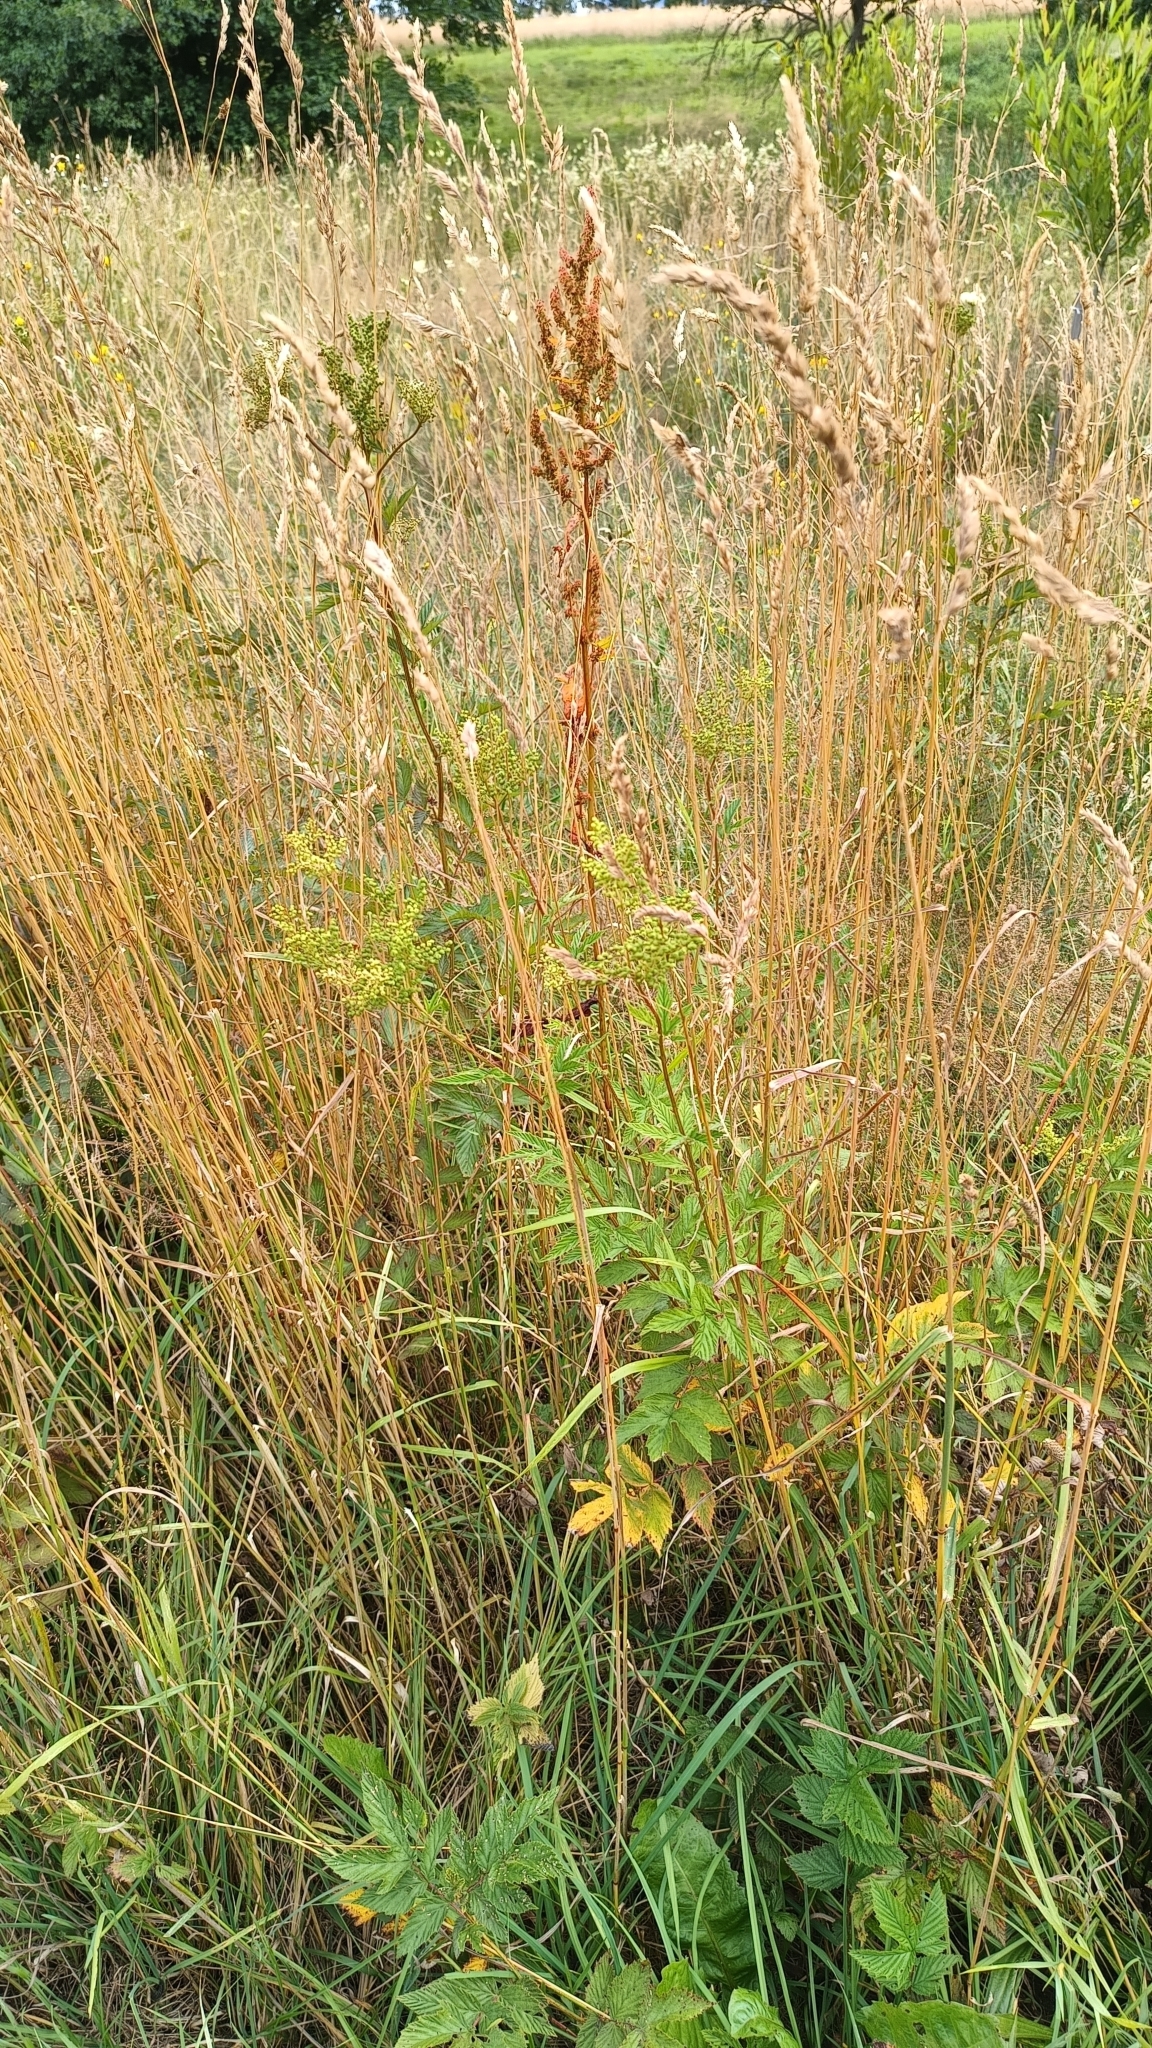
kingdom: Plantae
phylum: Tracheophyta
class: Magnoliopsida
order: Rosales
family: Rosaceae
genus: Filipendula
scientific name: Filipendula ulmaria
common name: Meadowsweet
